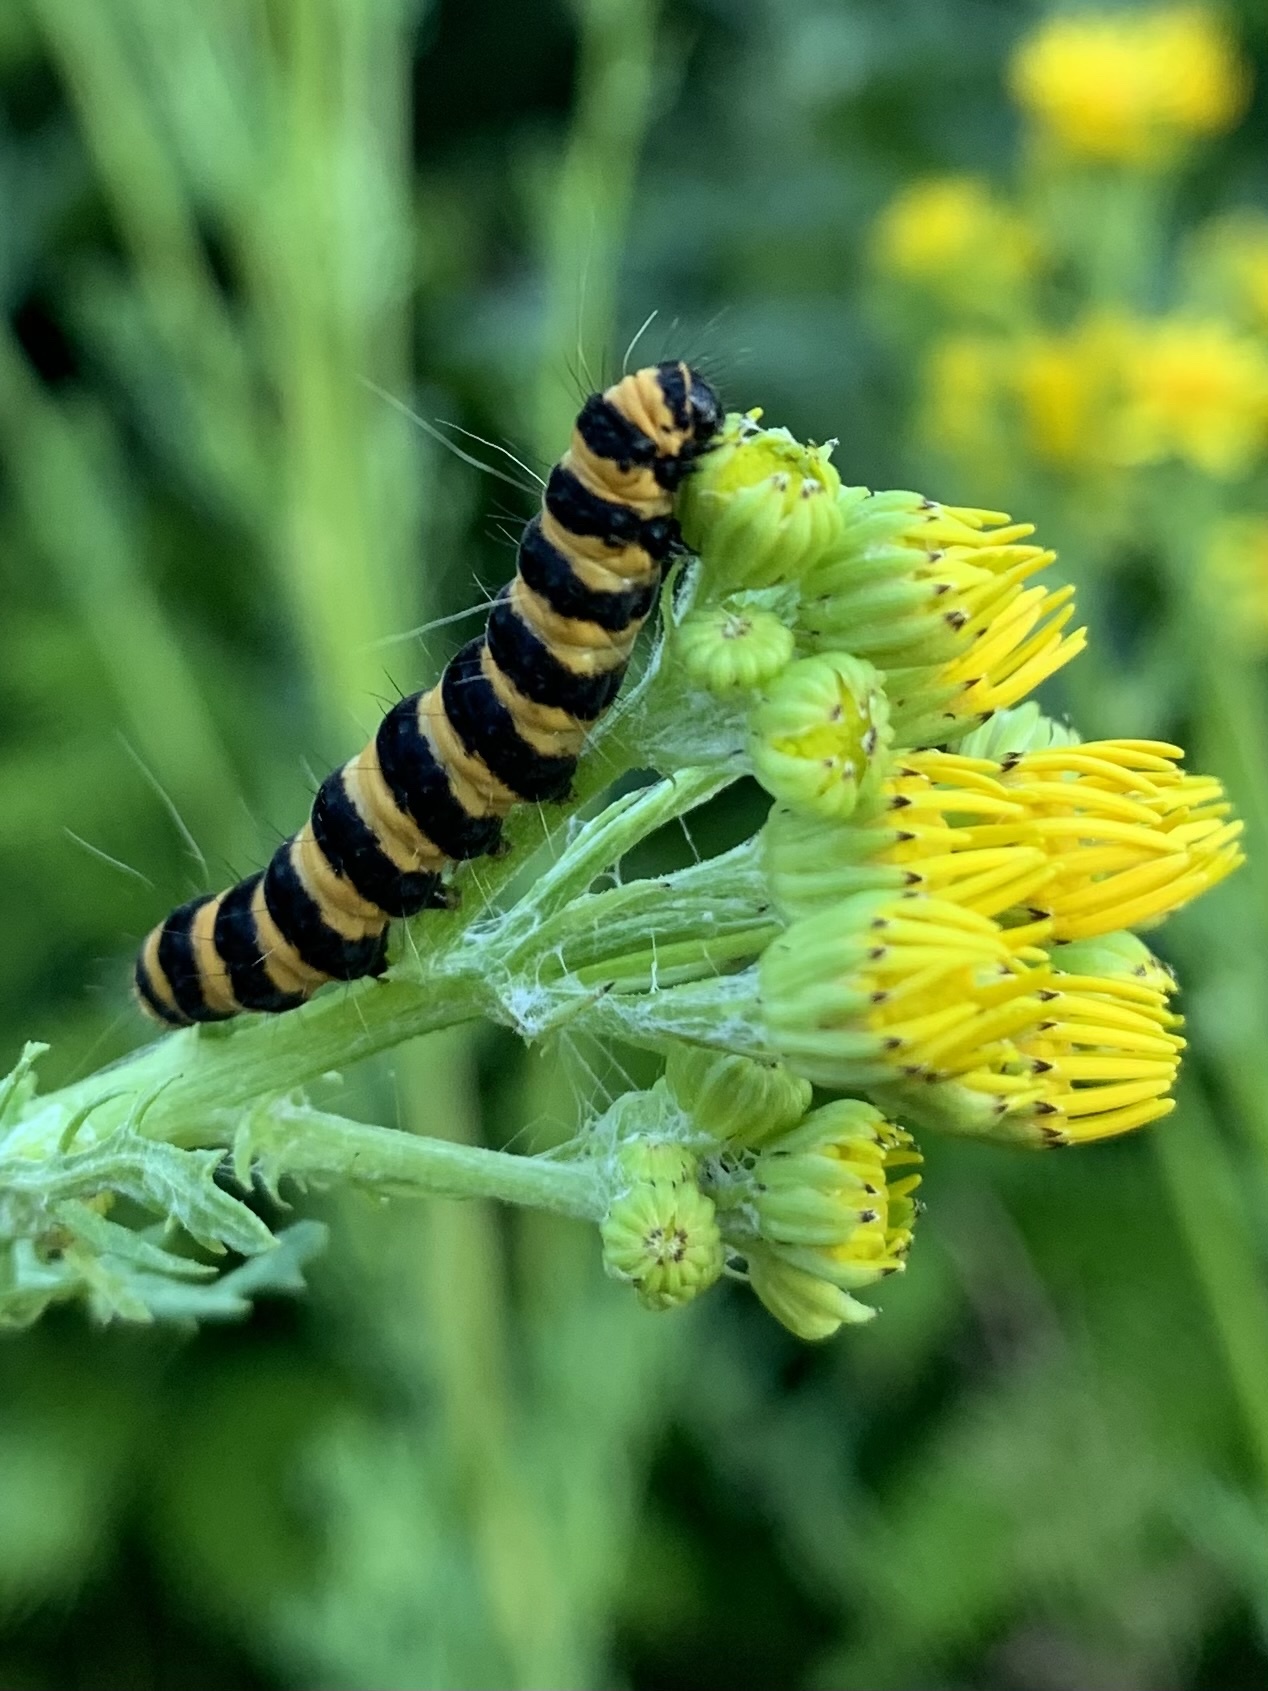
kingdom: Animalia
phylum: Arthropoda
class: Insecta
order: Lepidoptera
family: Erebidae
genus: Tyria
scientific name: Tyria jacobaeae
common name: Cinnabar
